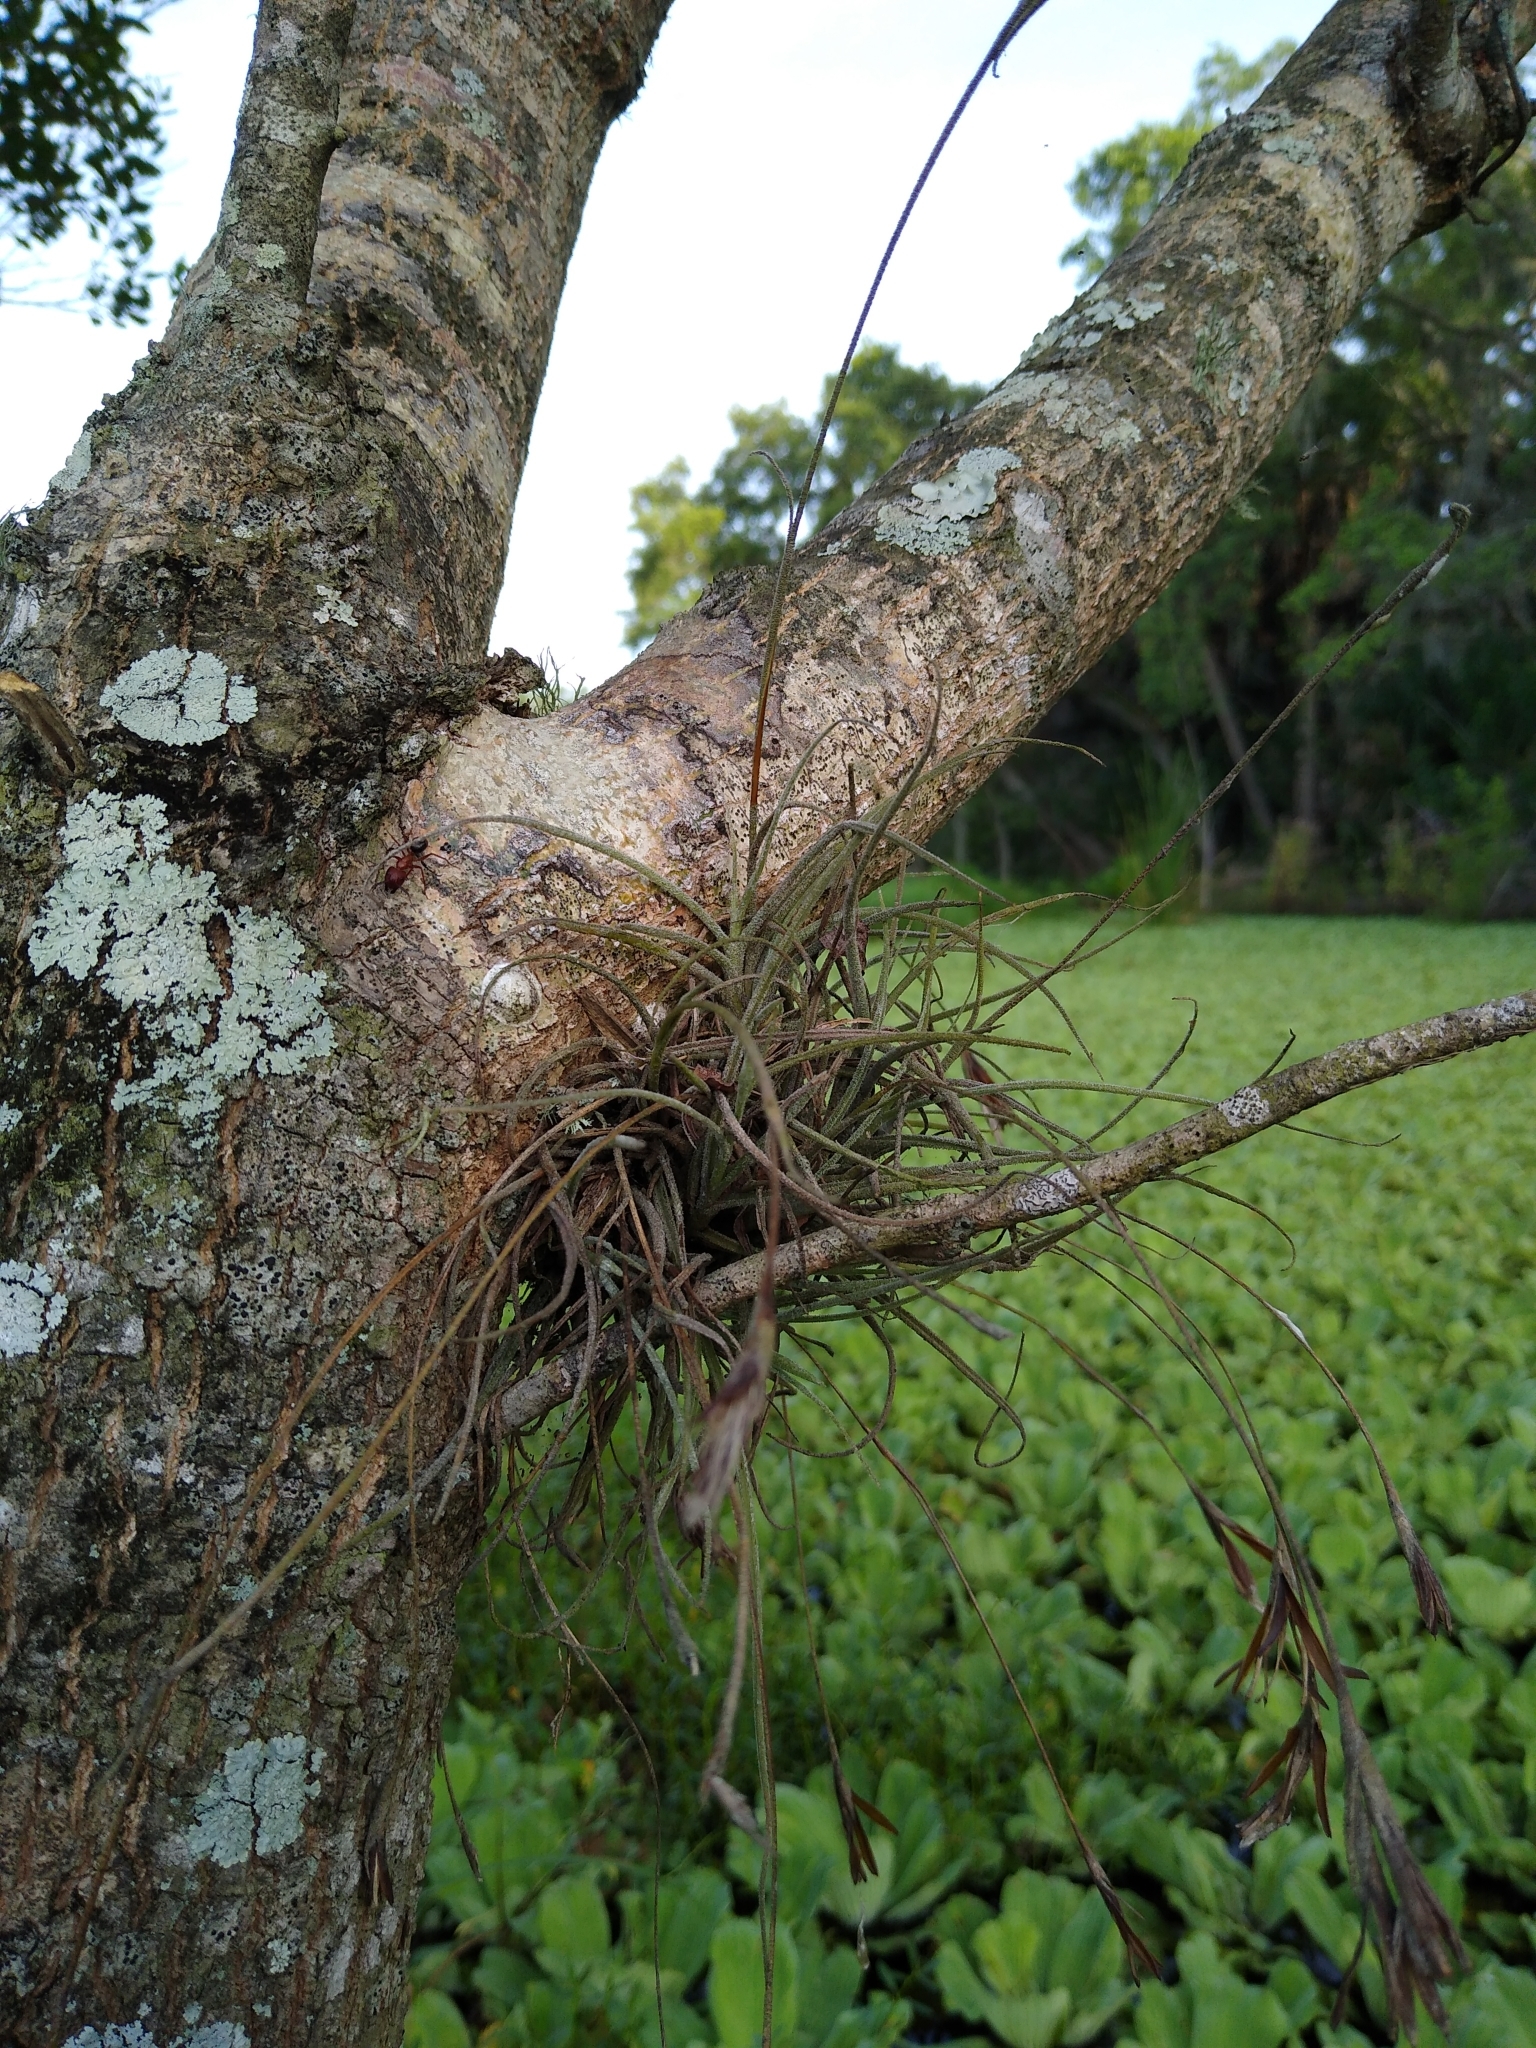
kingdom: Plantae
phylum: Tracheophyta
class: Liliopsida
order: Poales
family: Bromeliaceae
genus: Tillandsia
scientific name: Tillandsia recurvata
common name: Small ballmoss
